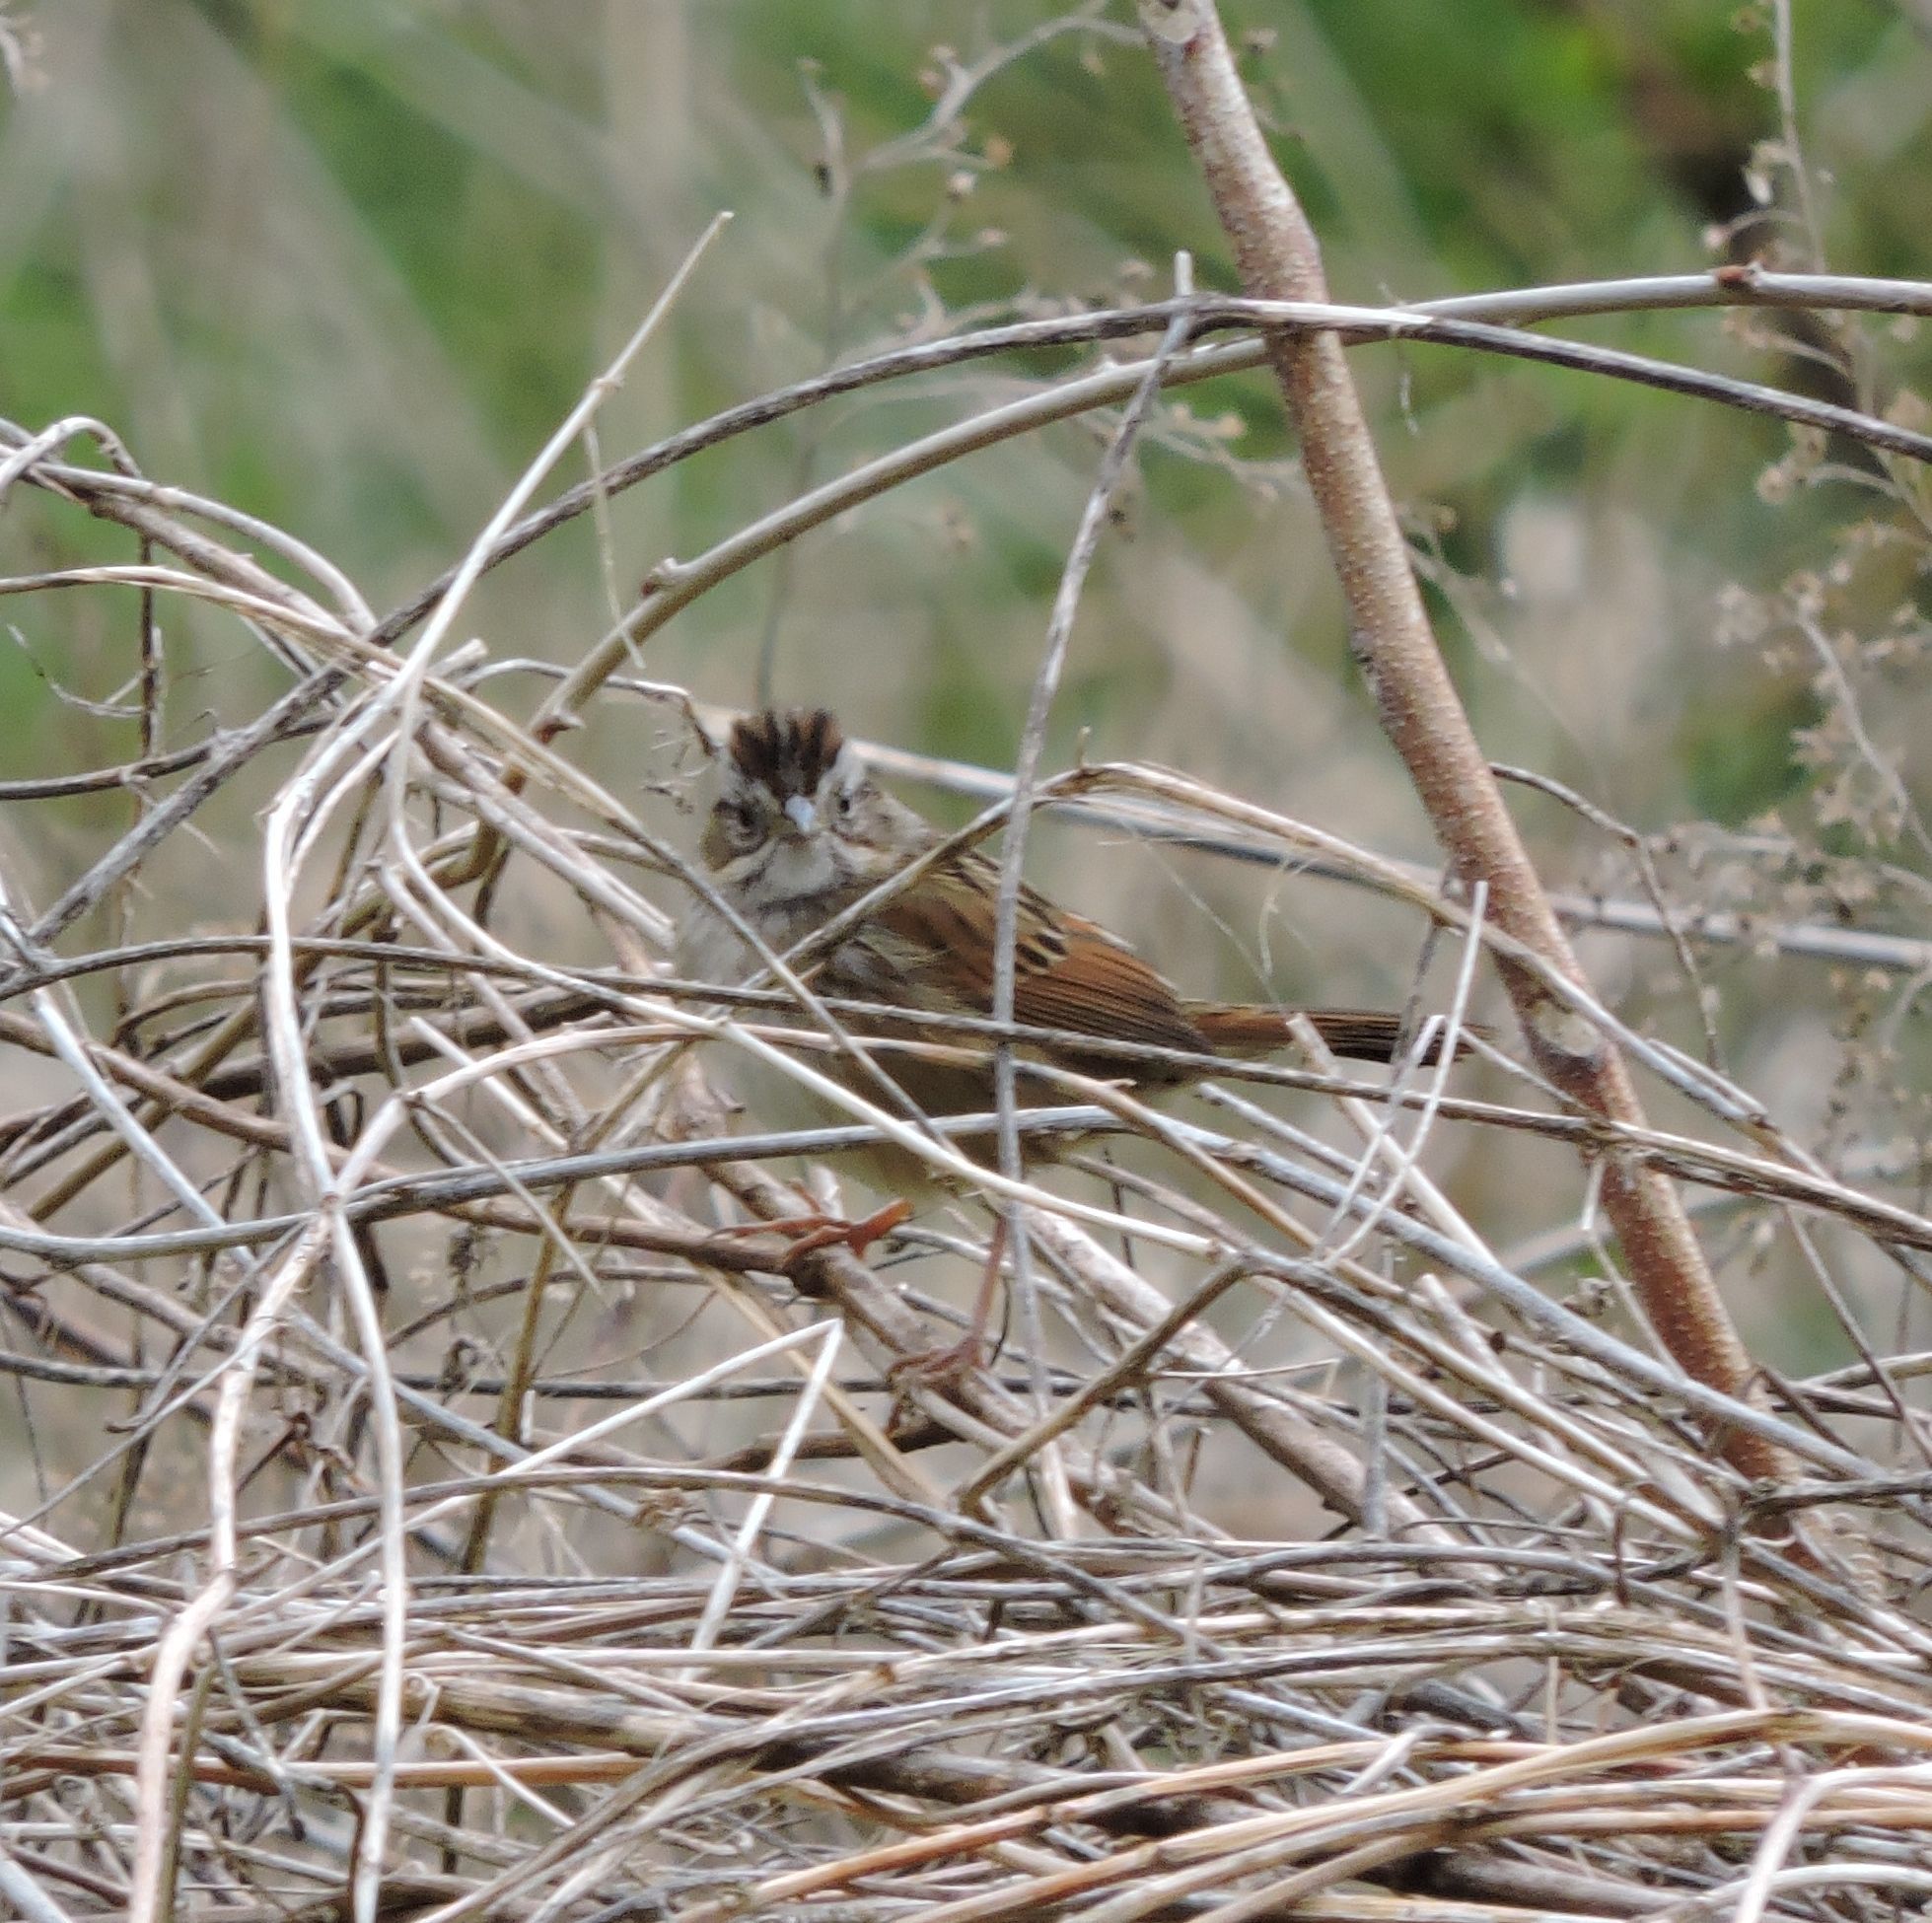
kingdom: Animalia
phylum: Chordata
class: Aves
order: Passeriformes
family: Passerellidae
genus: Melospiza
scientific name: Melospiza georgiana
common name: Swamp sparrow
